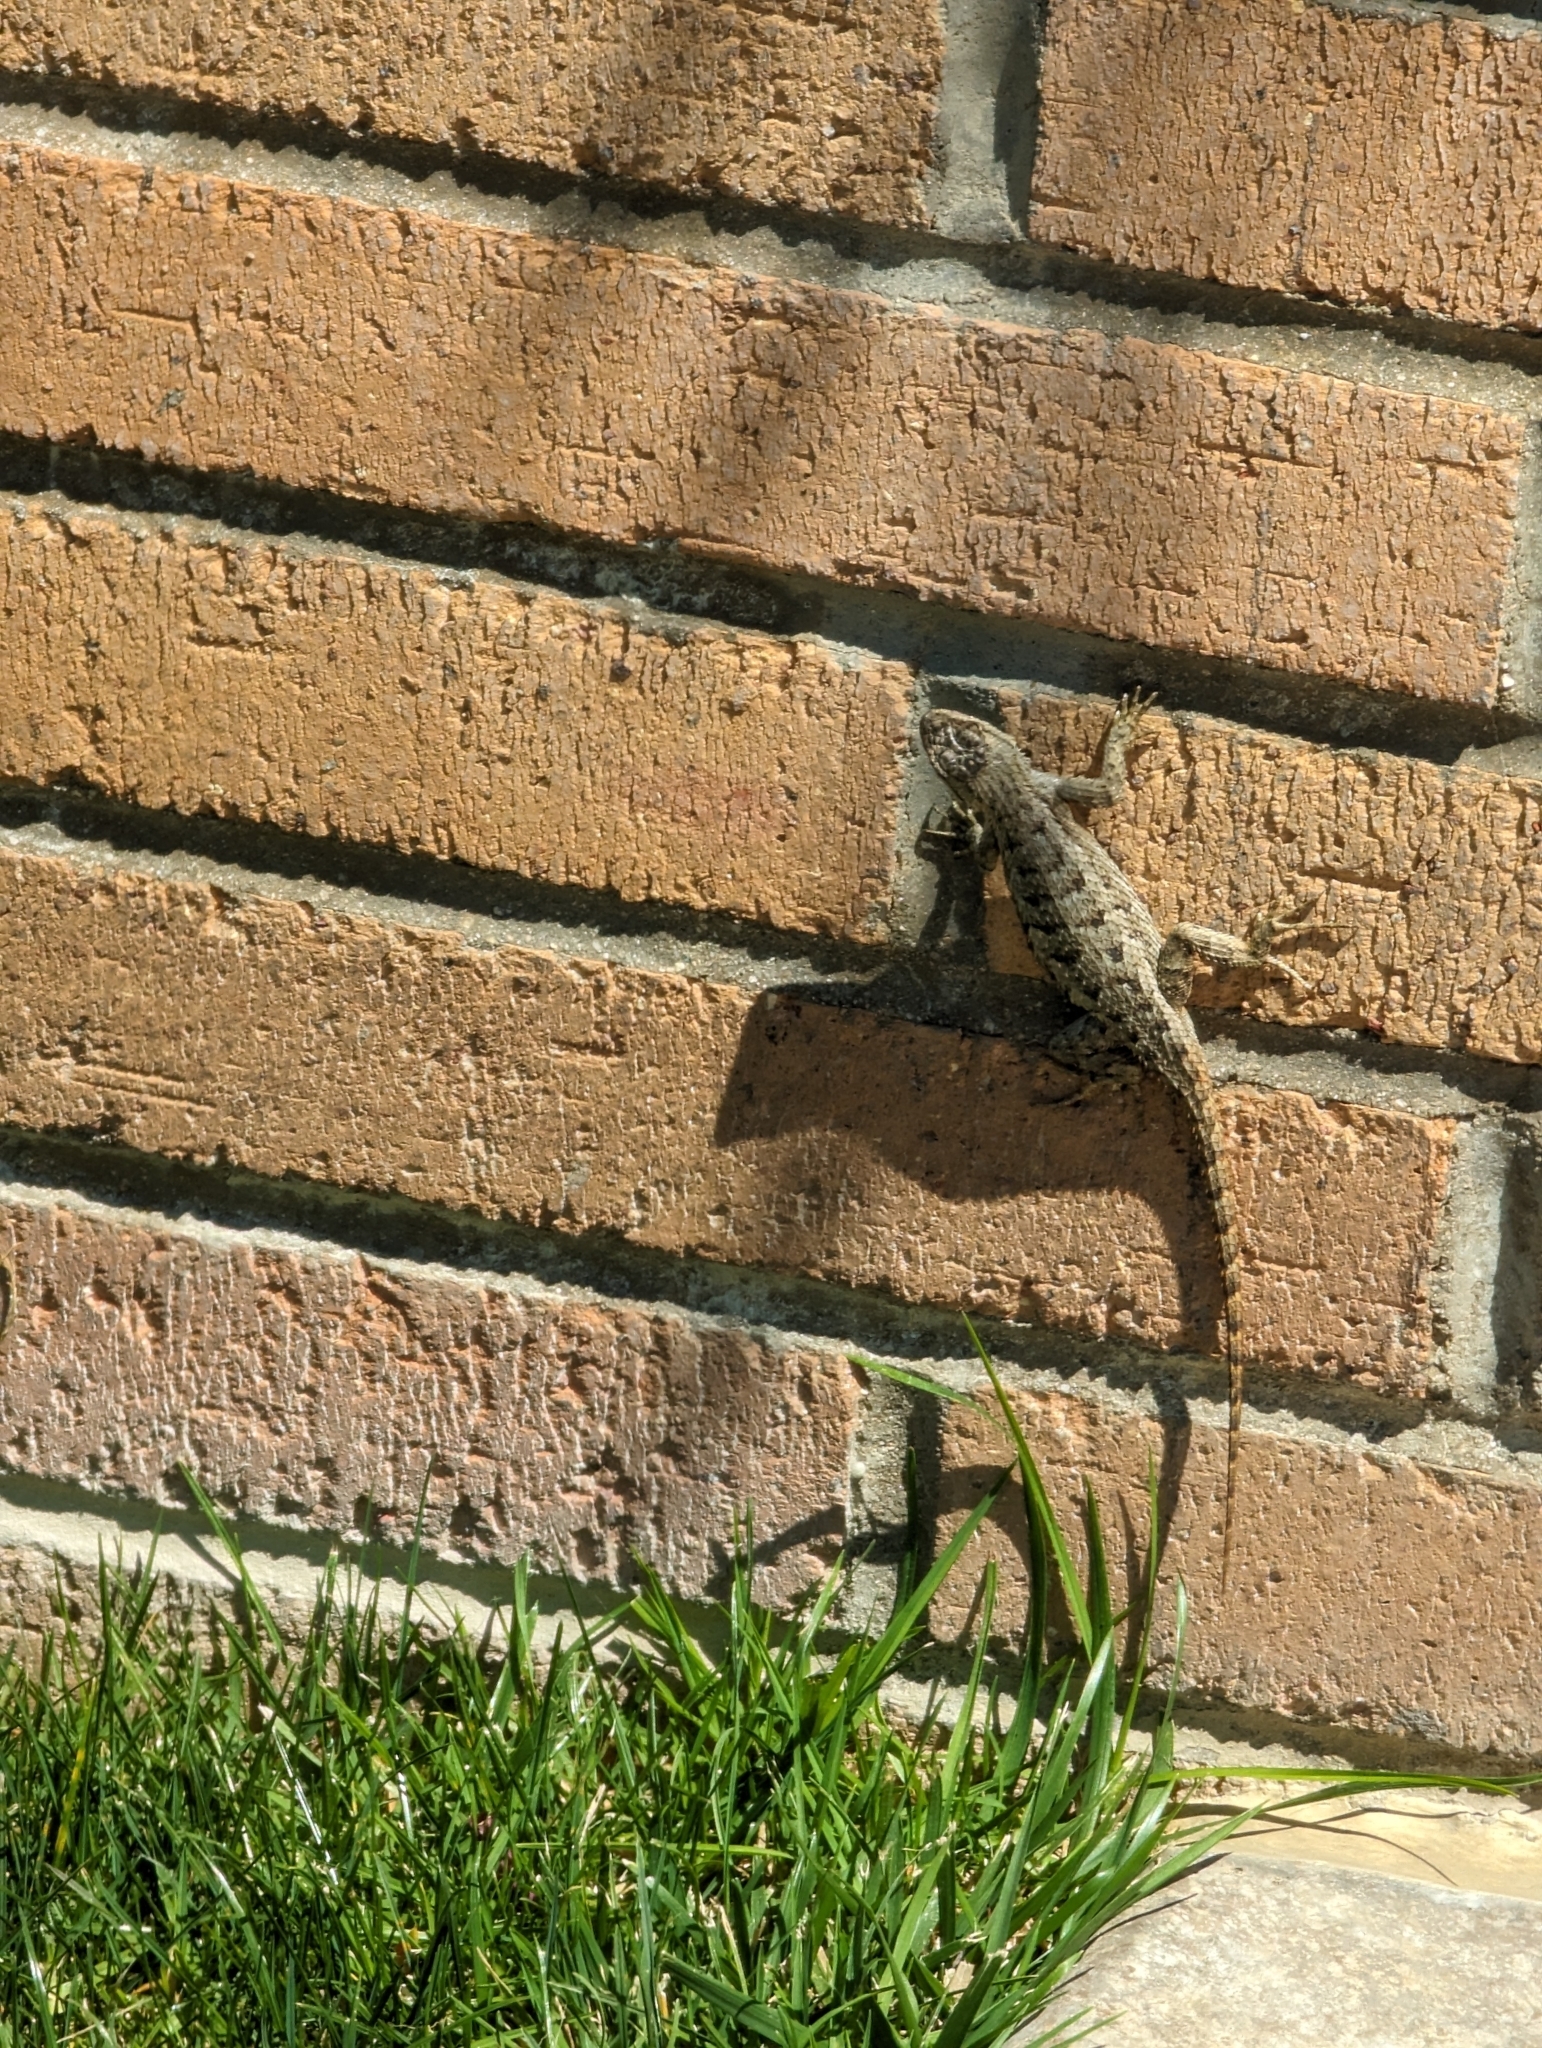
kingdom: Animalia
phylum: Chordata
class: Squamata
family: Phrynosomatidae
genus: Sceloporus
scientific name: Sceloporus occidentalis
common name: Western fence lizard
